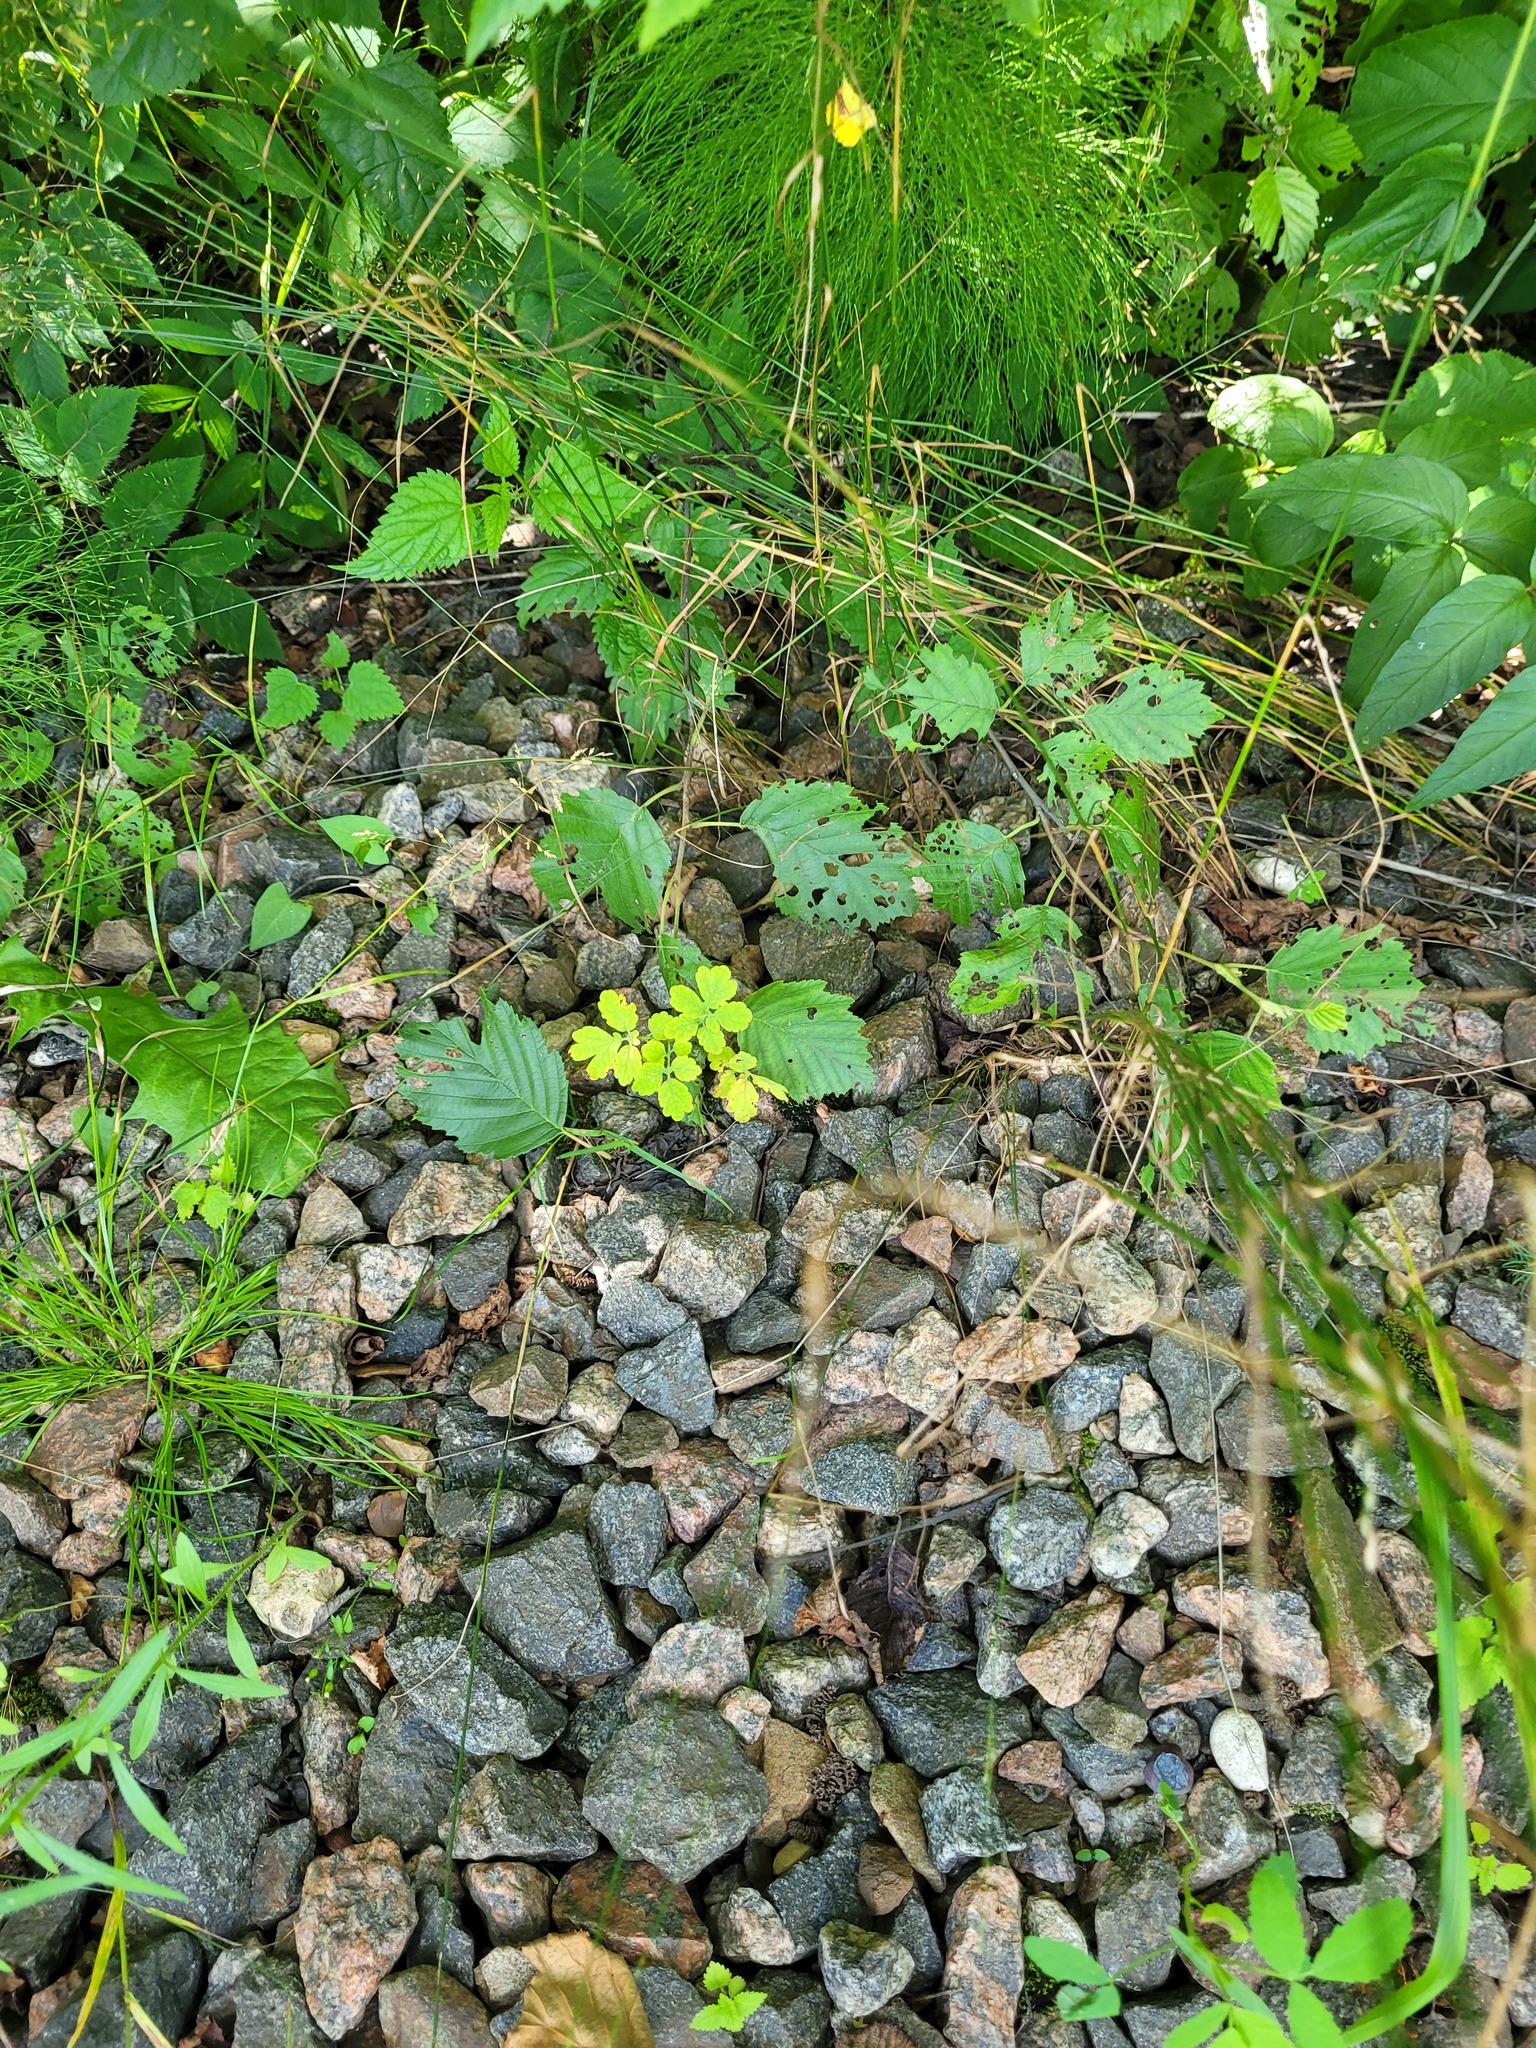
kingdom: Plantae
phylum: Tracheophyta
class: Magnoliopsida
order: Fagales
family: Betulaceae
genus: Alnus
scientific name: Alnus incana
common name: Grey alder
